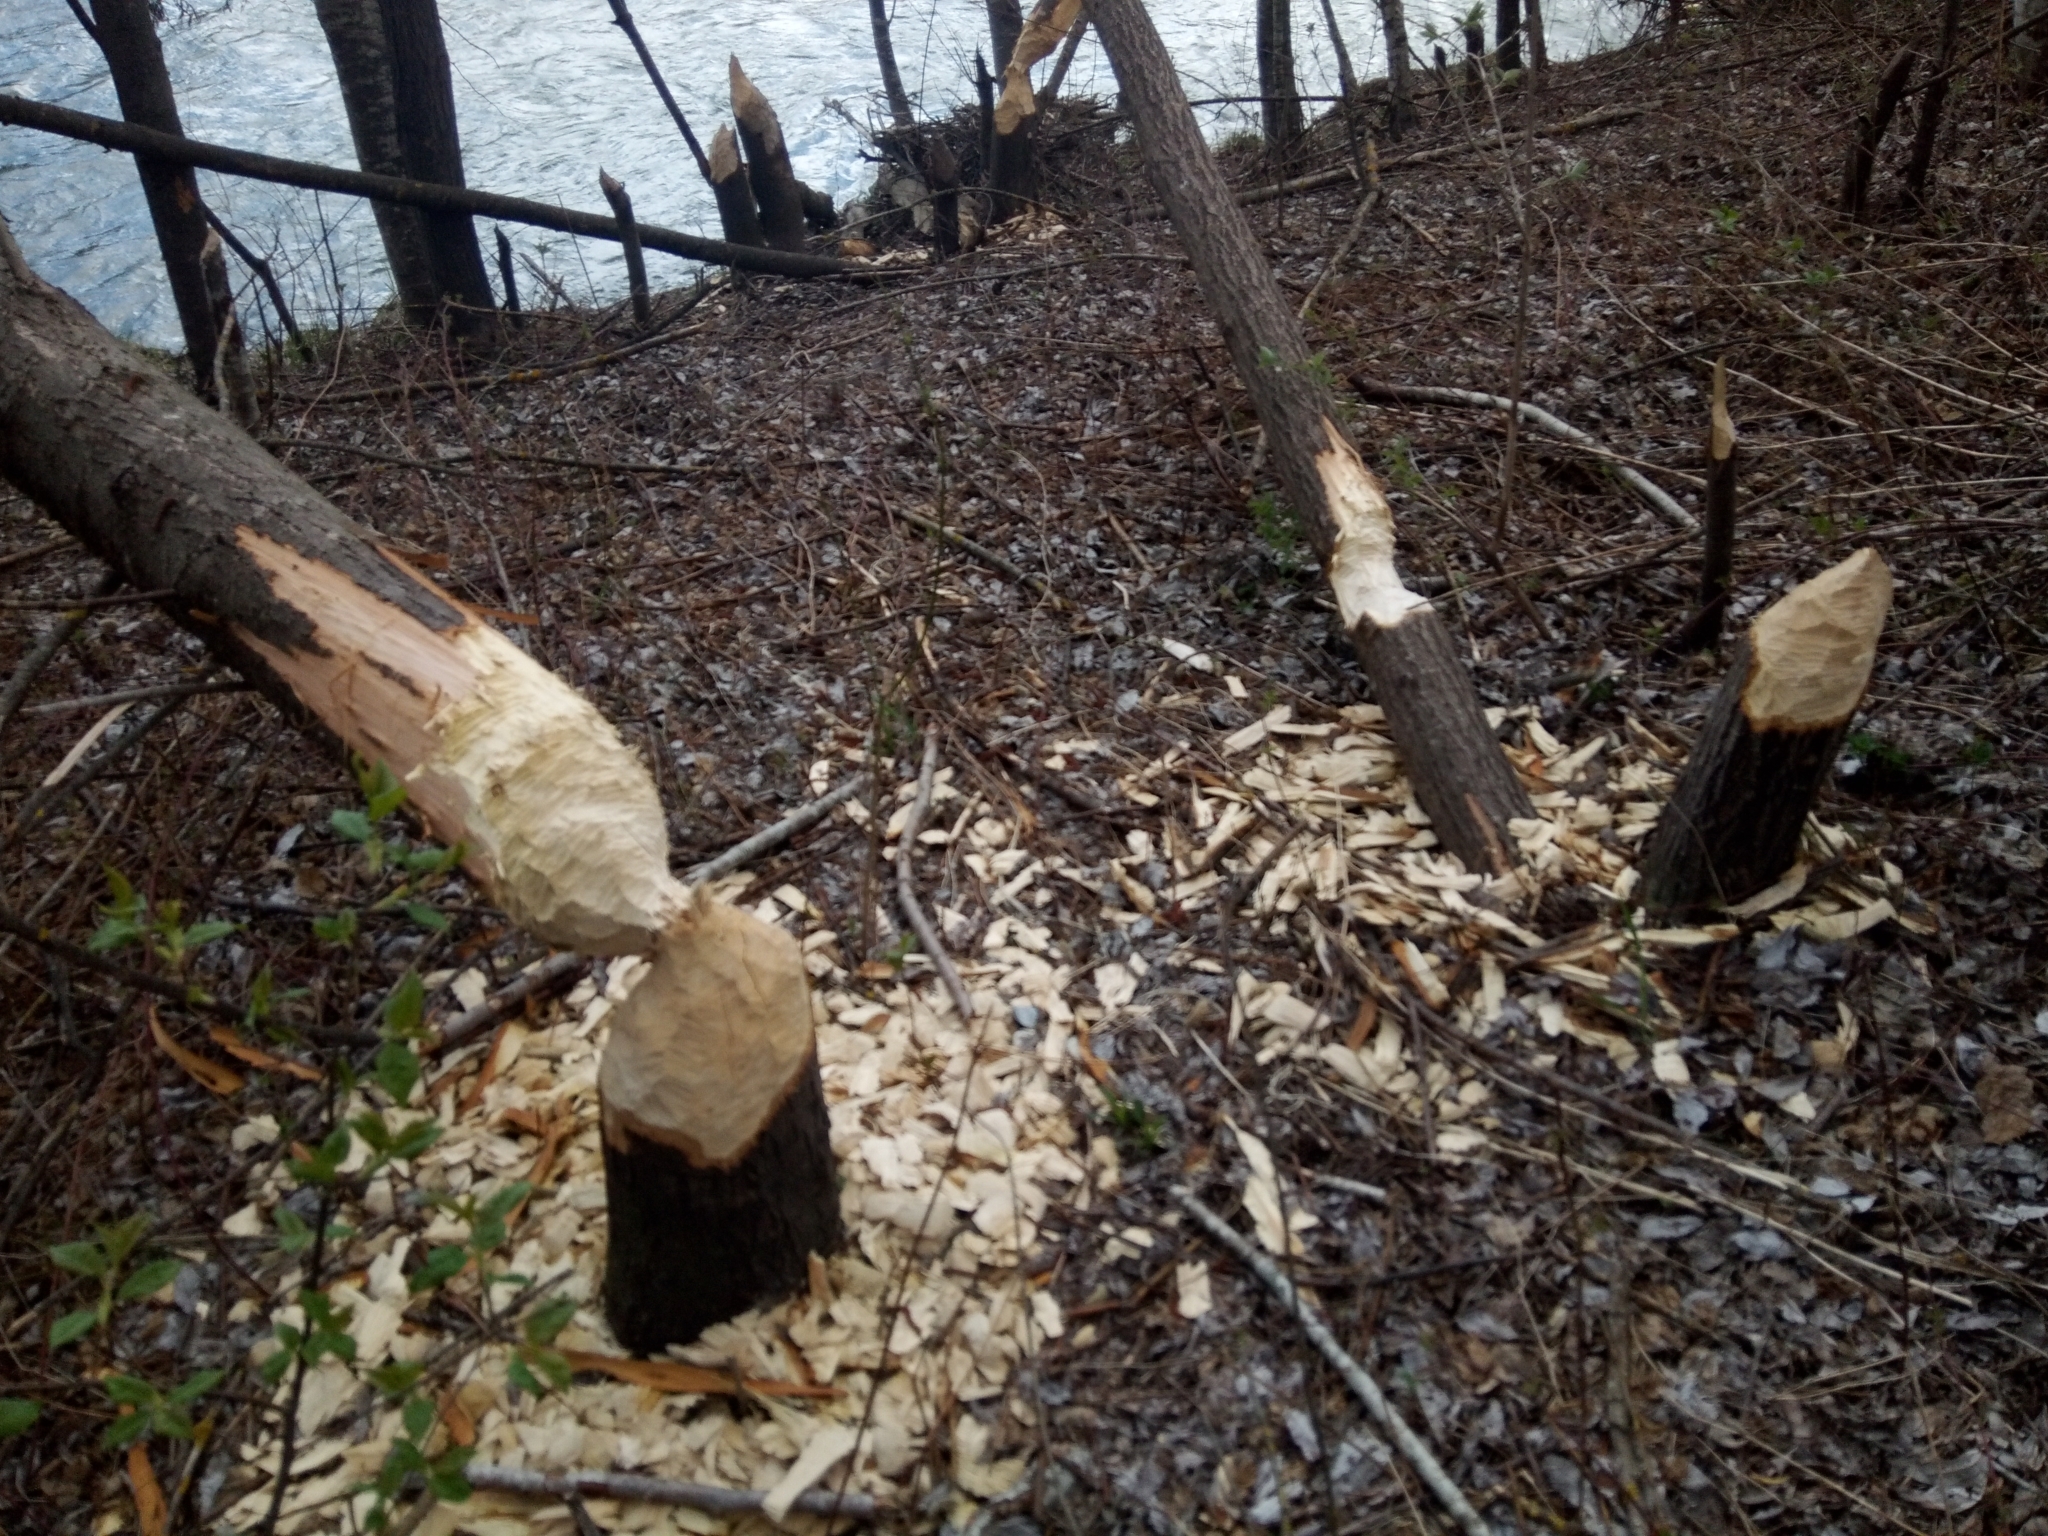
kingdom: Animalia
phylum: Chordata
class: Mammalia
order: Rodentia
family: Castoridae
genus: Castor
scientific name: Castor fiber
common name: Eurasian beaver
